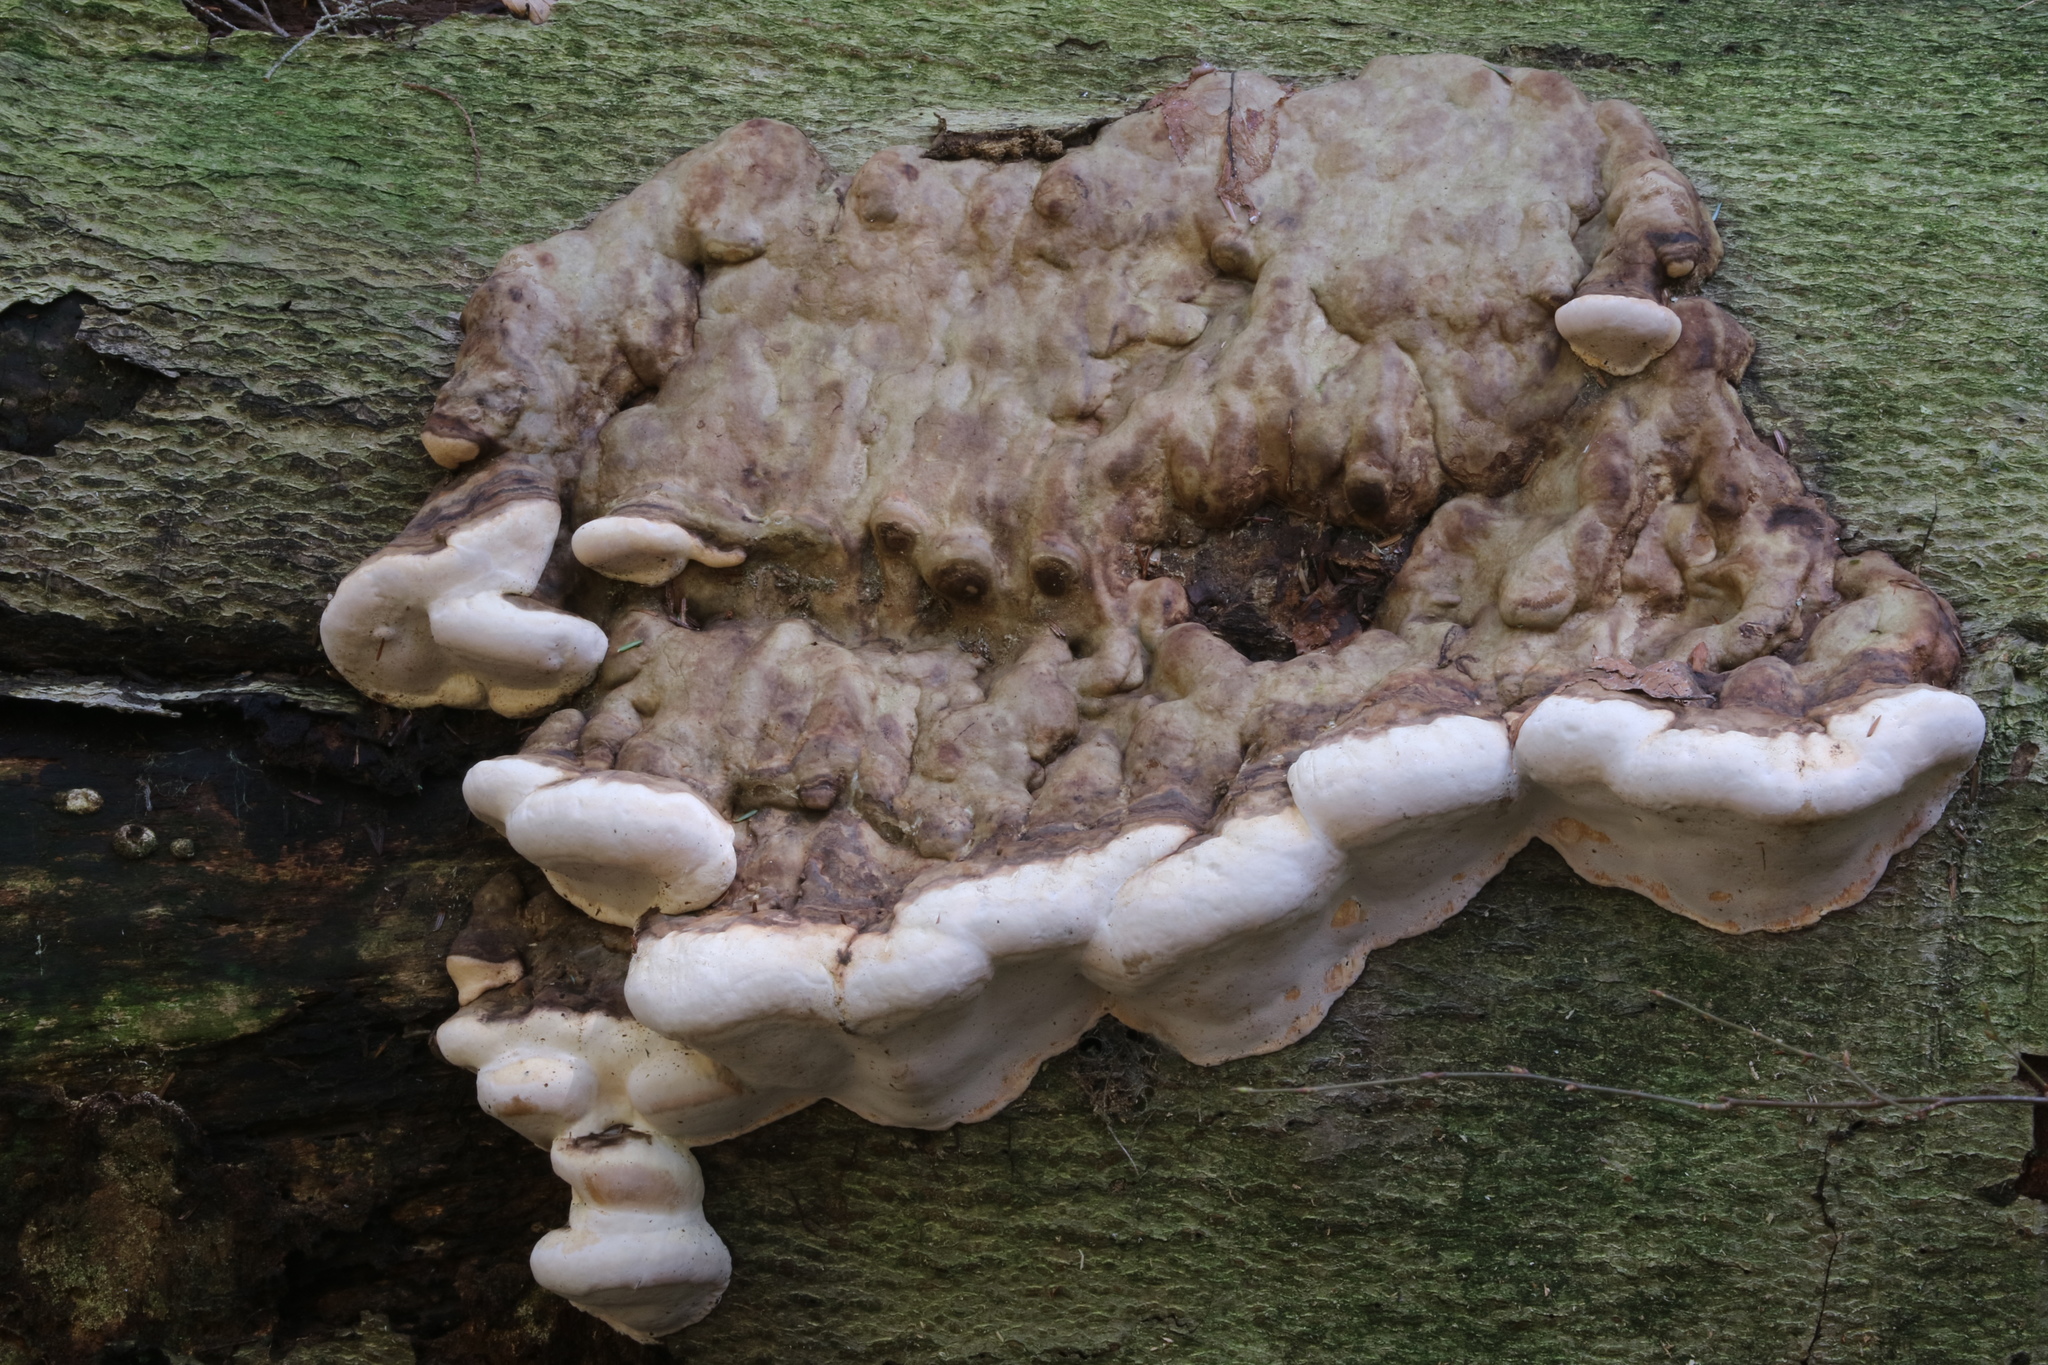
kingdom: Fungi
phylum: Basidiomycota
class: Agaricomycetes
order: Polyporales
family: Fomitopsidaceae
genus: Fomitopsis
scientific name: Fomitopsis ochracea
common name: American brown fomitopsis
